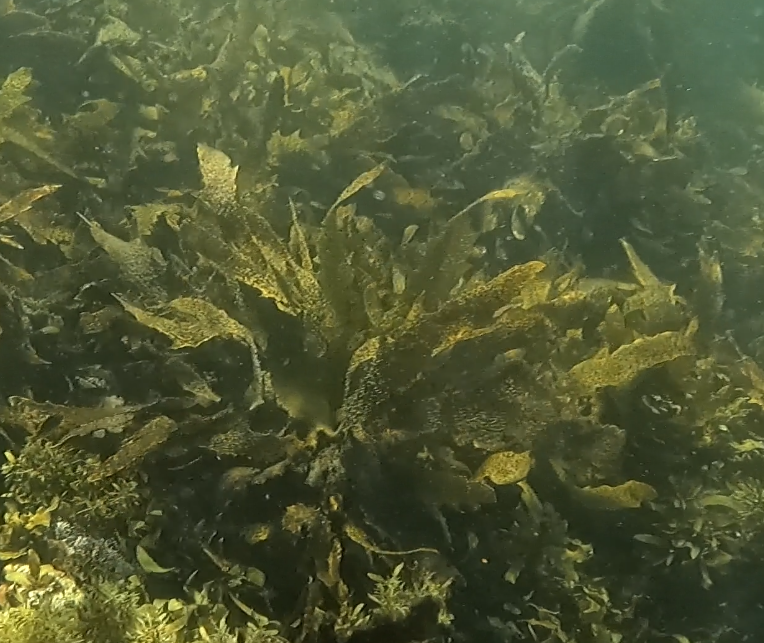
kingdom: Chromista
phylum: Ochrophyta
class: Phaeophyceae
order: Laminariales
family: Lessoniaceae
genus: Ecklonia
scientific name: Ecklonia radiata
